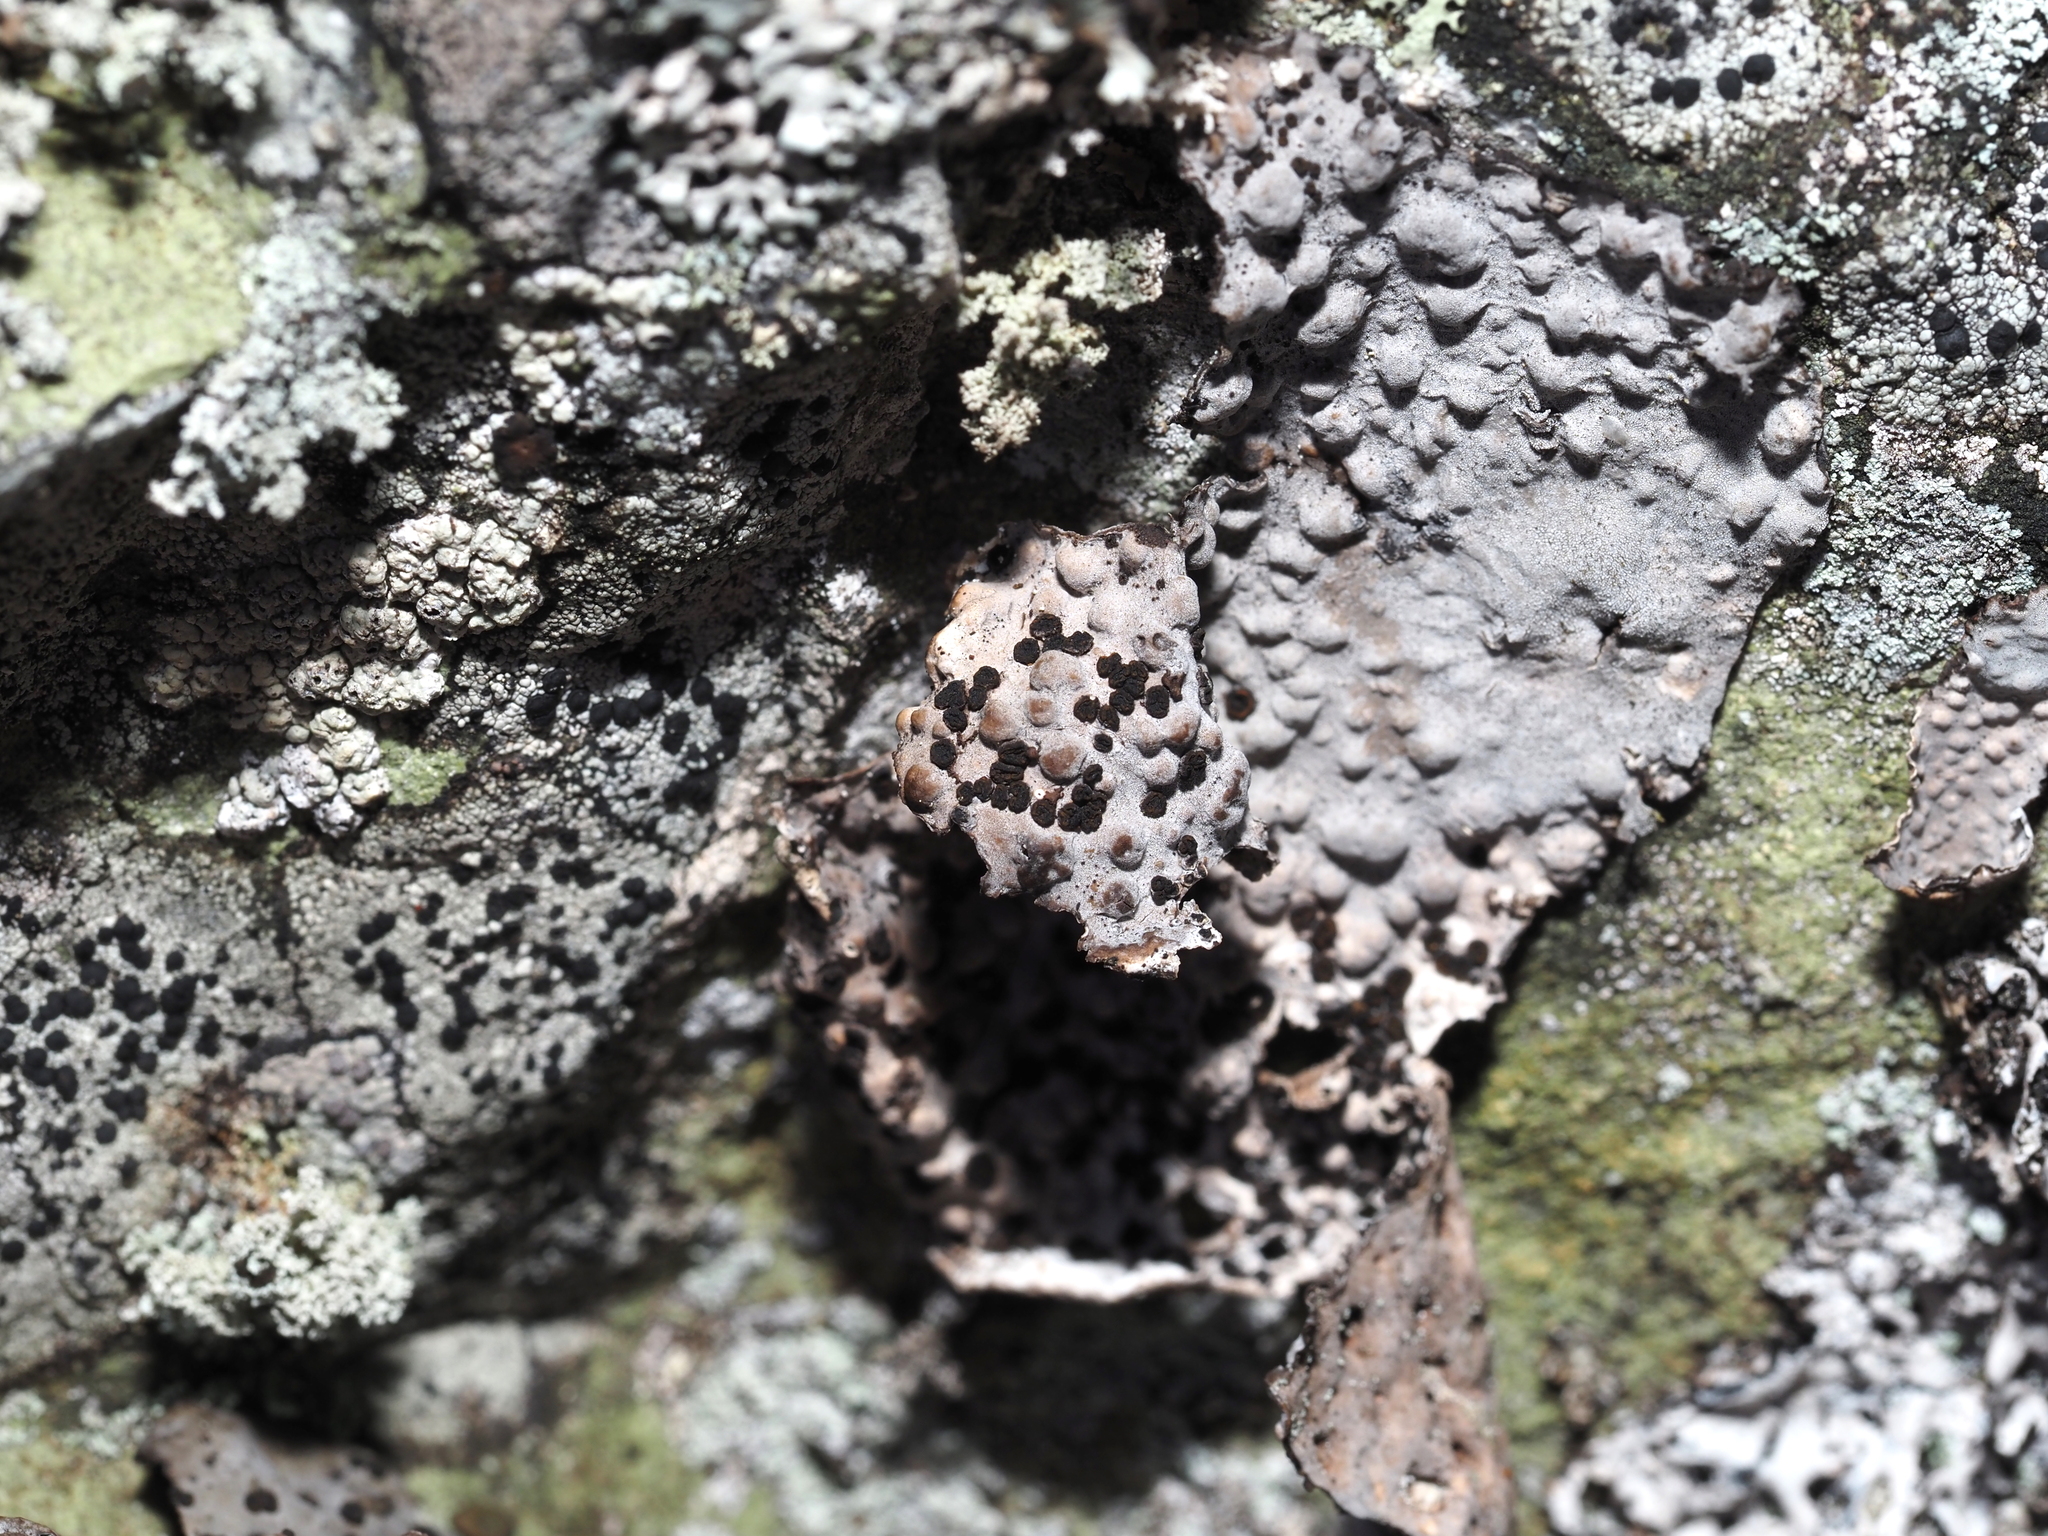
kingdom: Fungi
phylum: Ascomycota
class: Lecanoromycetes
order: Umbilicariales
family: Umbilicariaceae
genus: Lasallia
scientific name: Lasallia papulosa
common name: Common toadskin lichen
